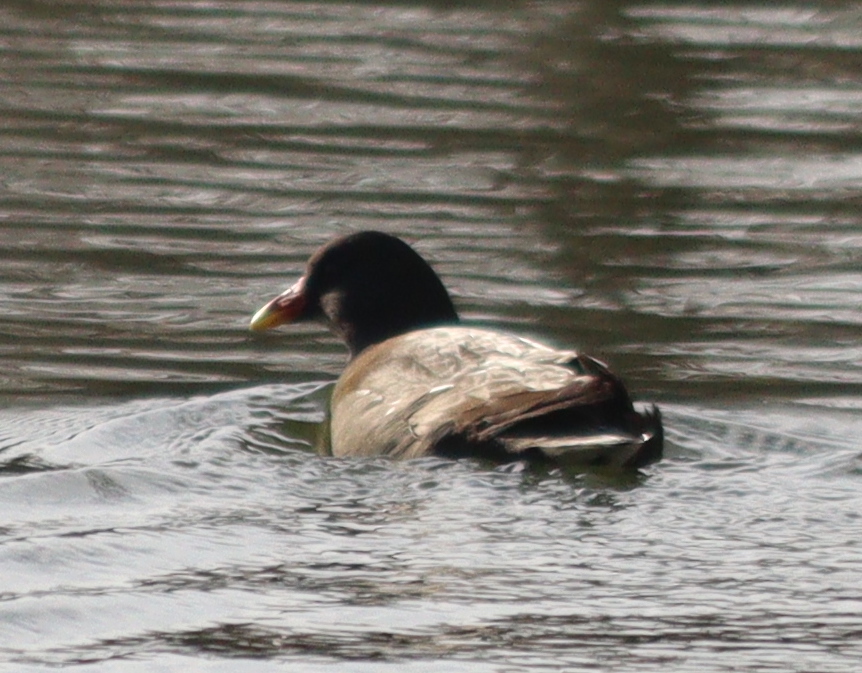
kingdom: Animalia
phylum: Chordata
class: Aves
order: Gruiformes
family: Rallidae
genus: Gallinula
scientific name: Gallinula chloropus
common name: Common moorhen
